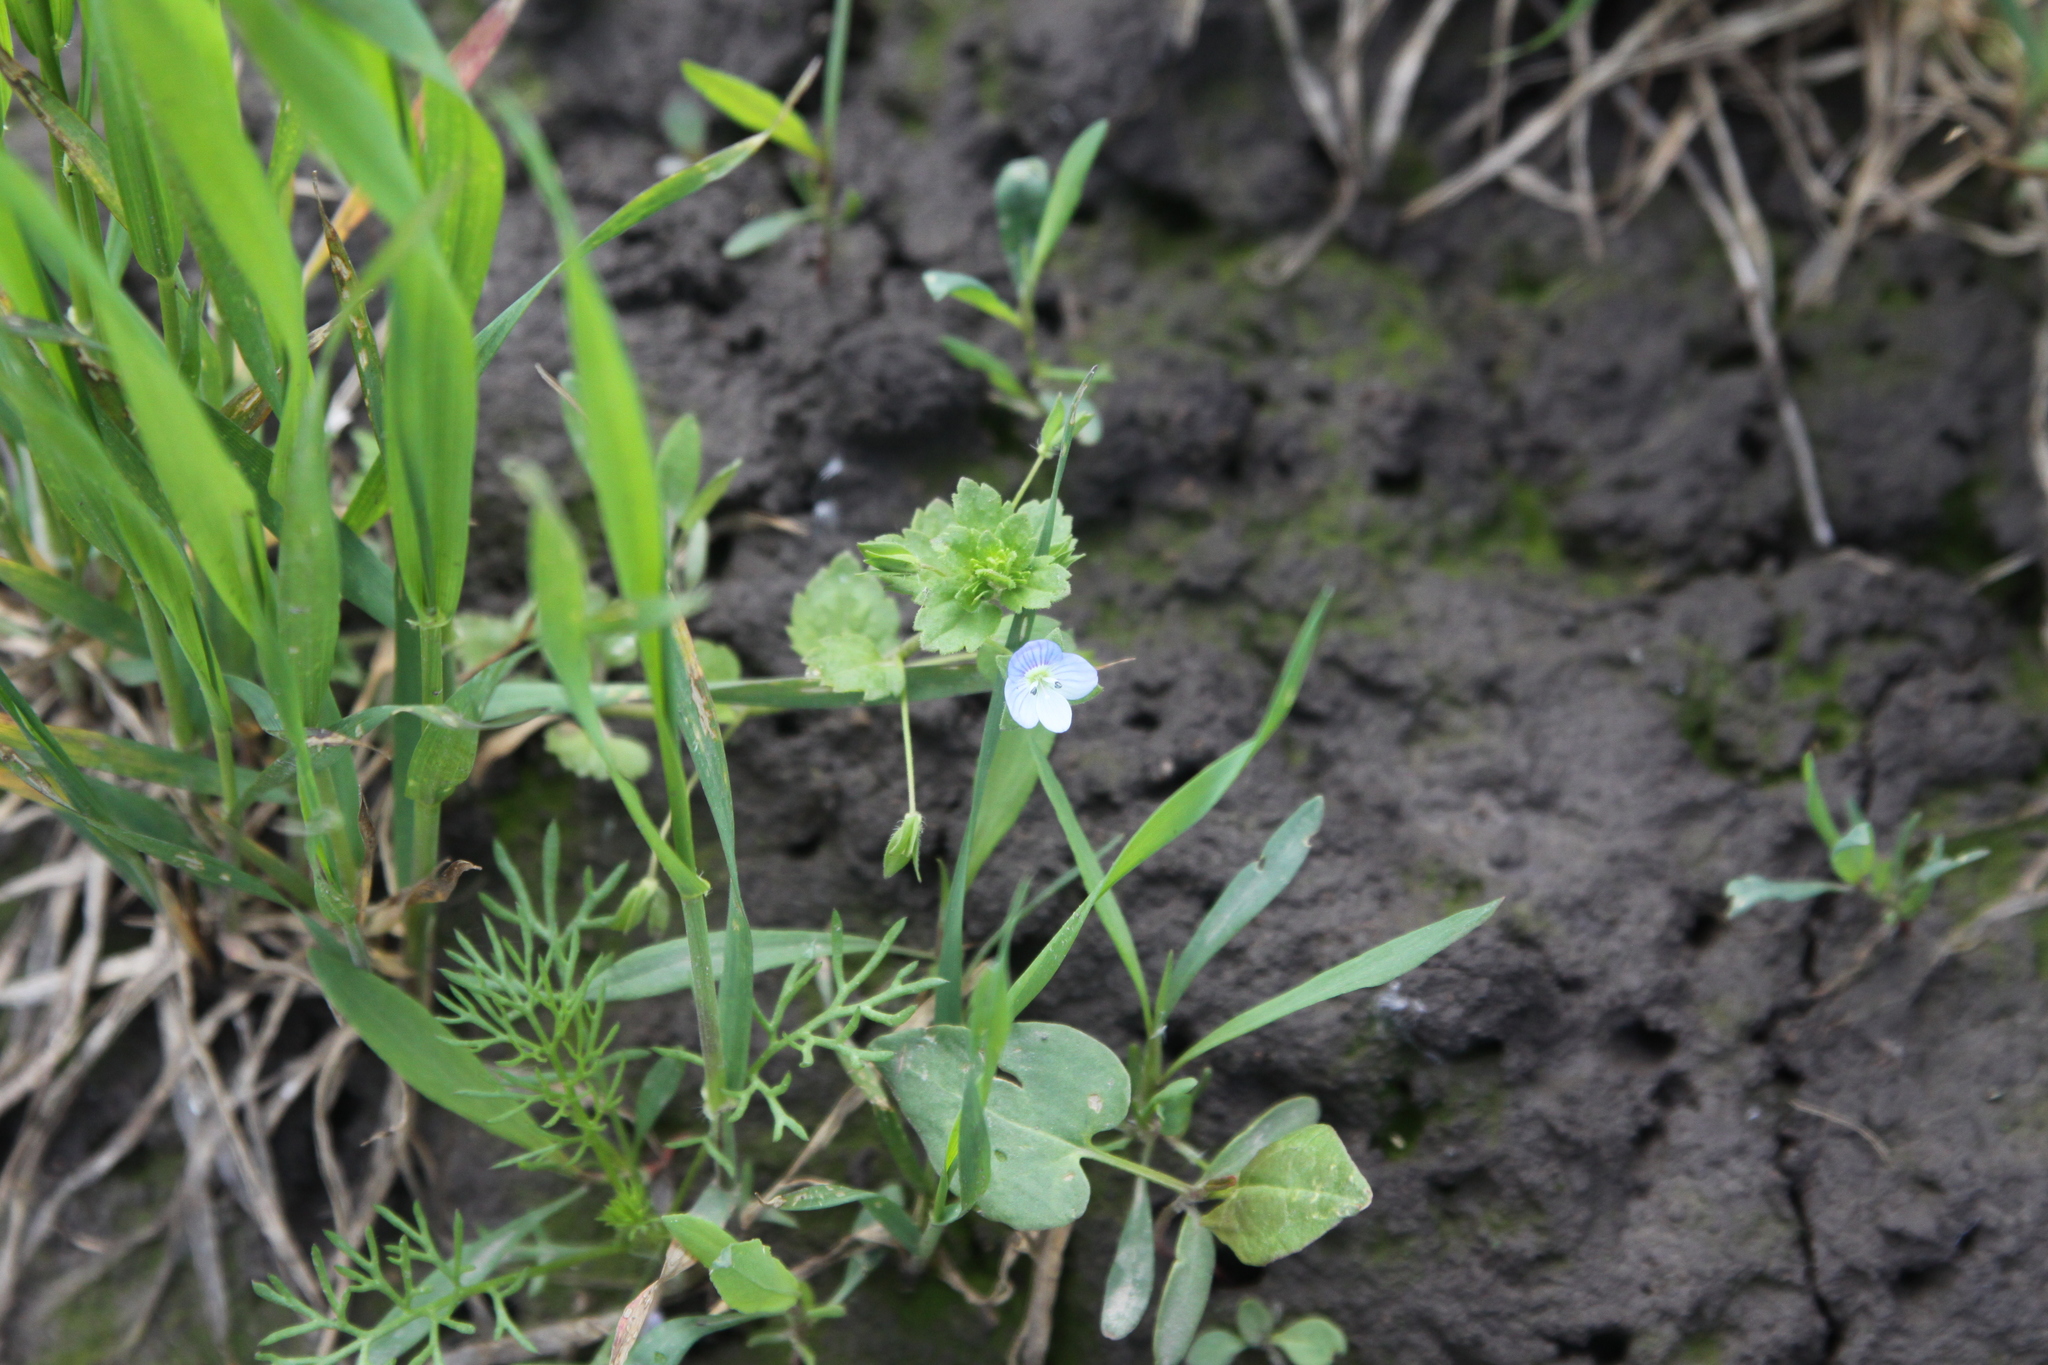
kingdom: Plantae
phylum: Tracheophyta
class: Magnoliopsida
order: Lamiales
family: Plantaginaceae
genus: Veronica
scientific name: Veronica persica
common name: Common field-speedwell
